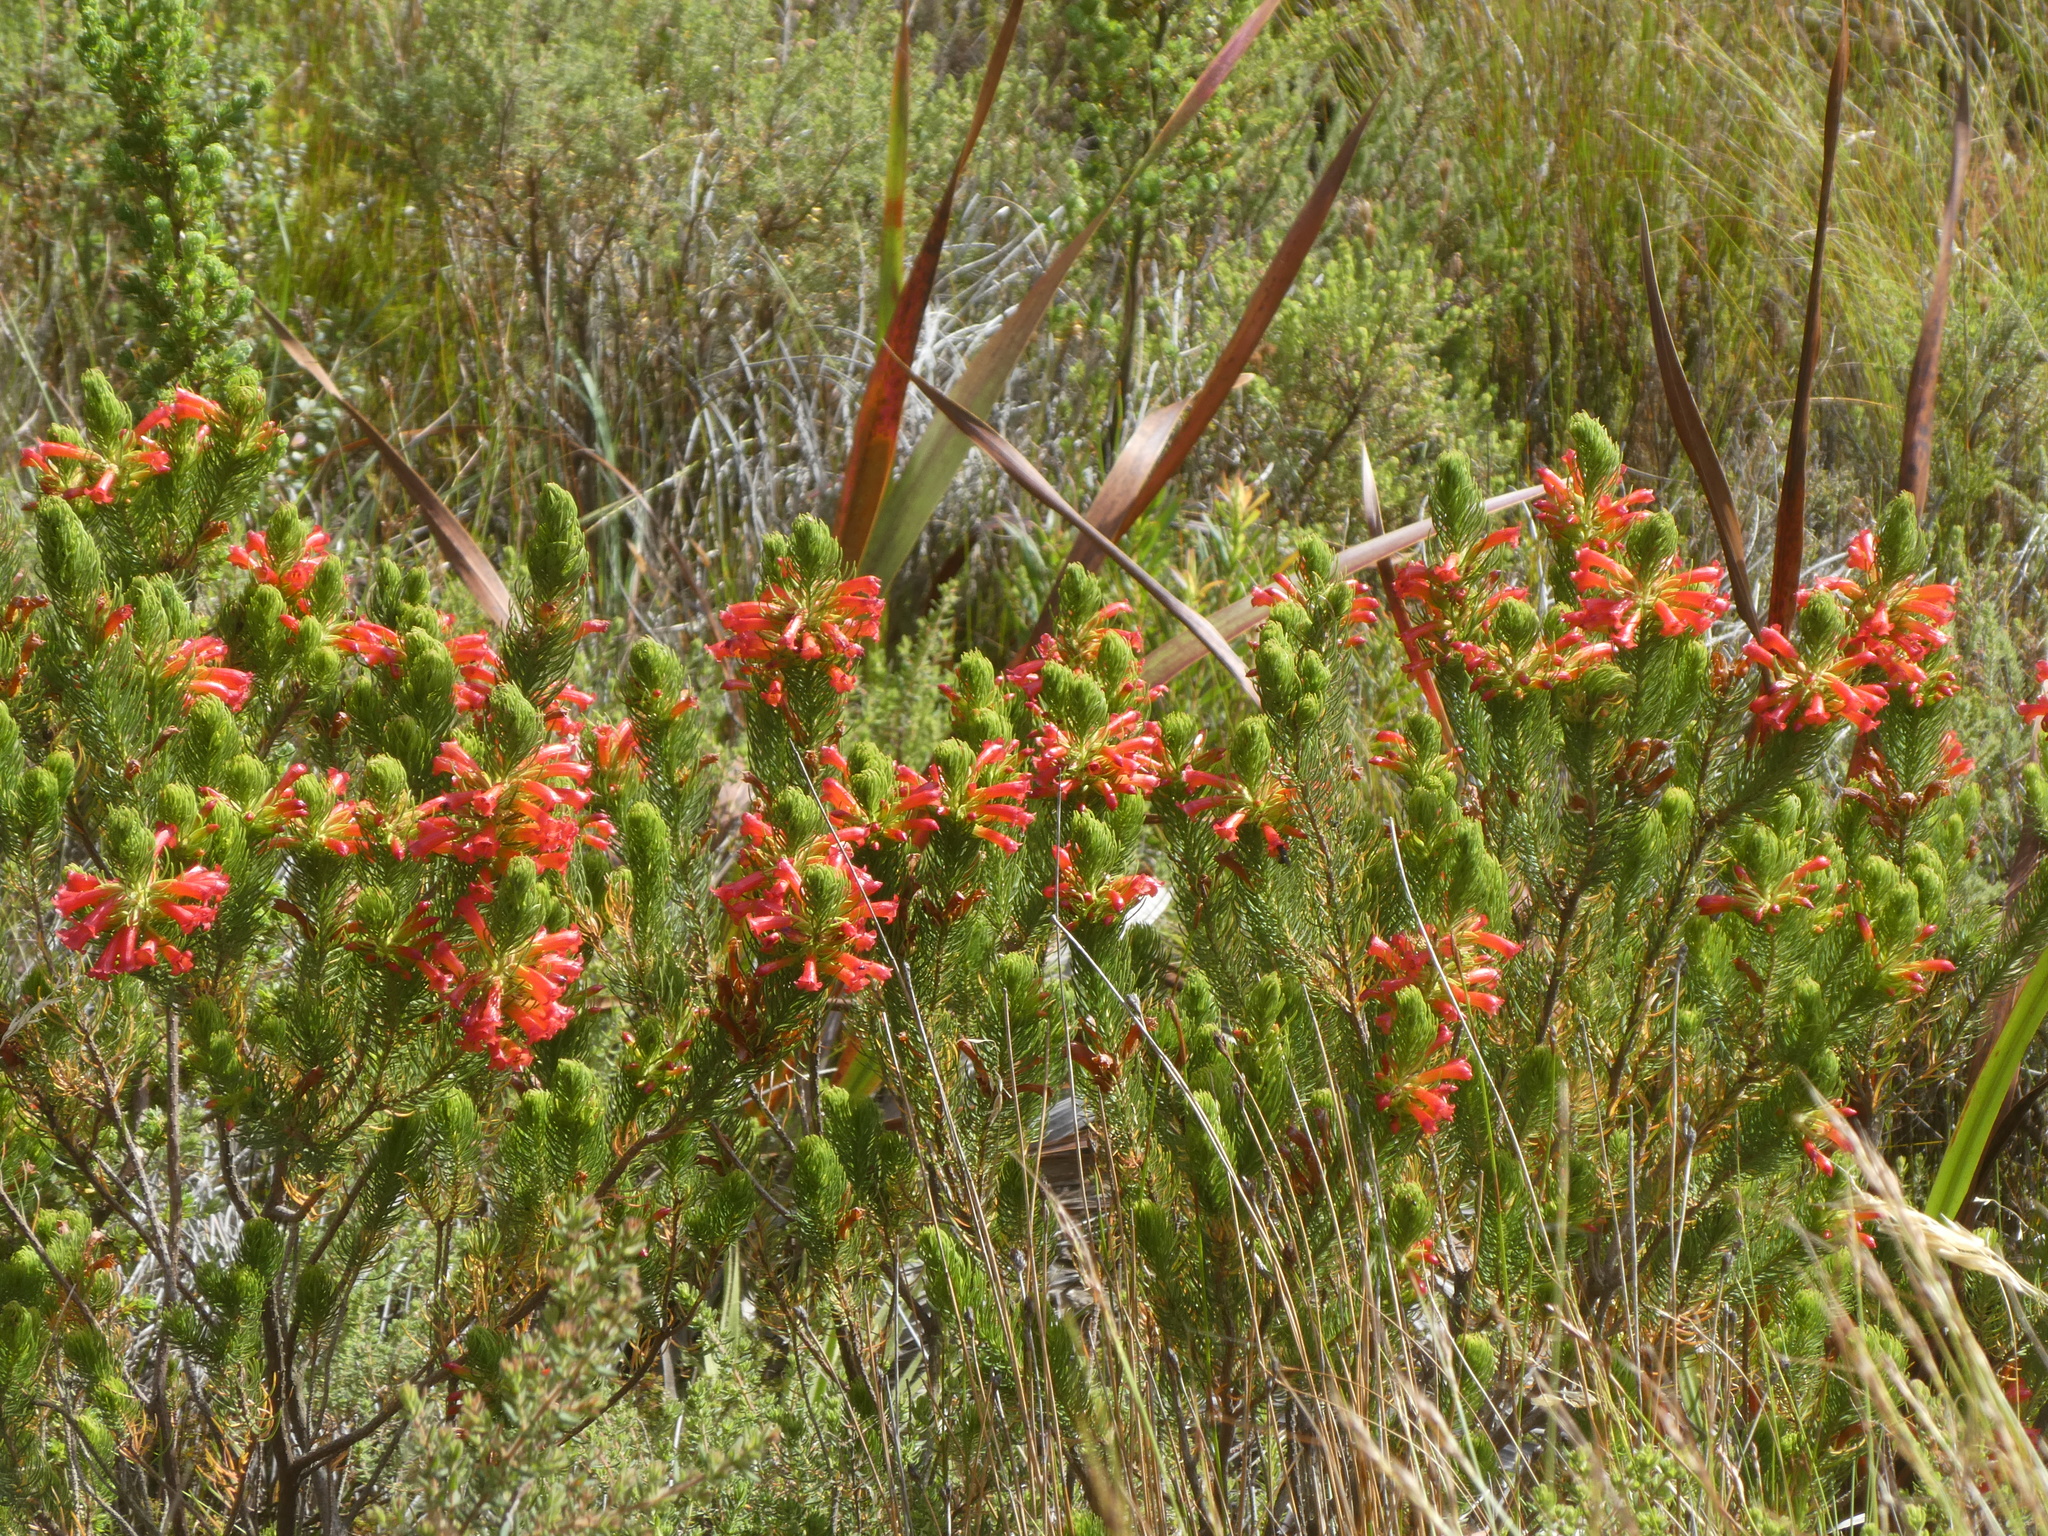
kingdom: Plantae
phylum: Tracheophyta
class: Magnoliopsida
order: Ericales
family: Ericaceae
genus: Erica
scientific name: Erica viscaria
